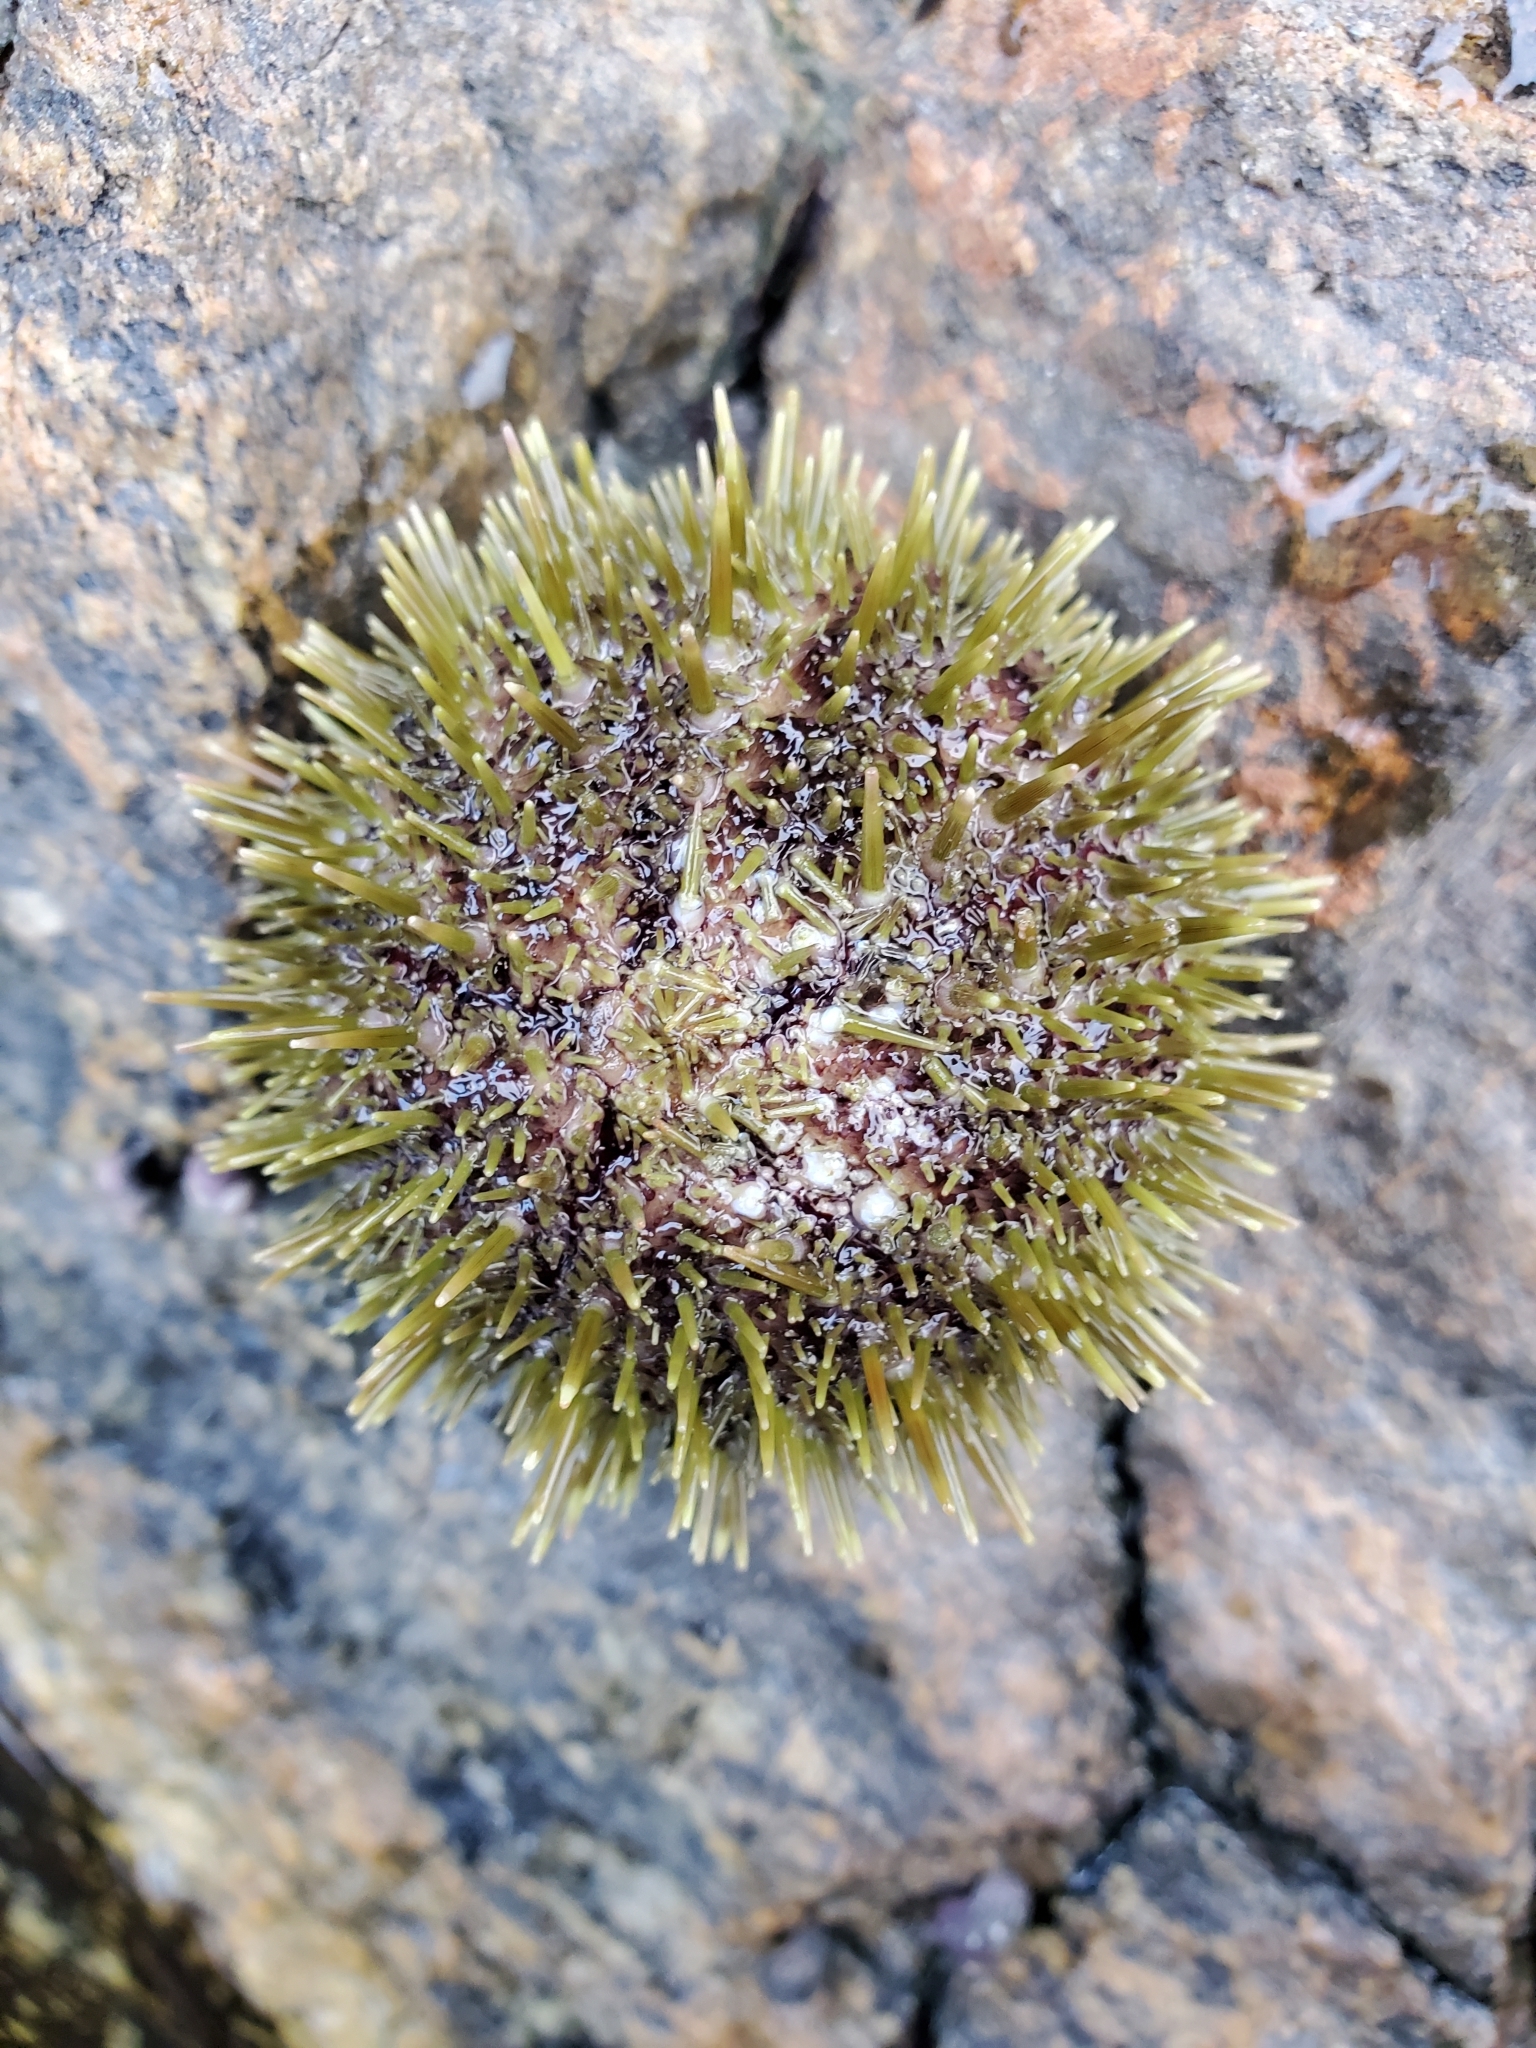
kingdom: Animalia
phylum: Echinodermata
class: Echinoidea
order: Camarodonta
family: Strongylocentrotidae
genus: Strongylocentrotus
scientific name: Strongylocentrotus droebachiensis
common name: Northern sea urchin
